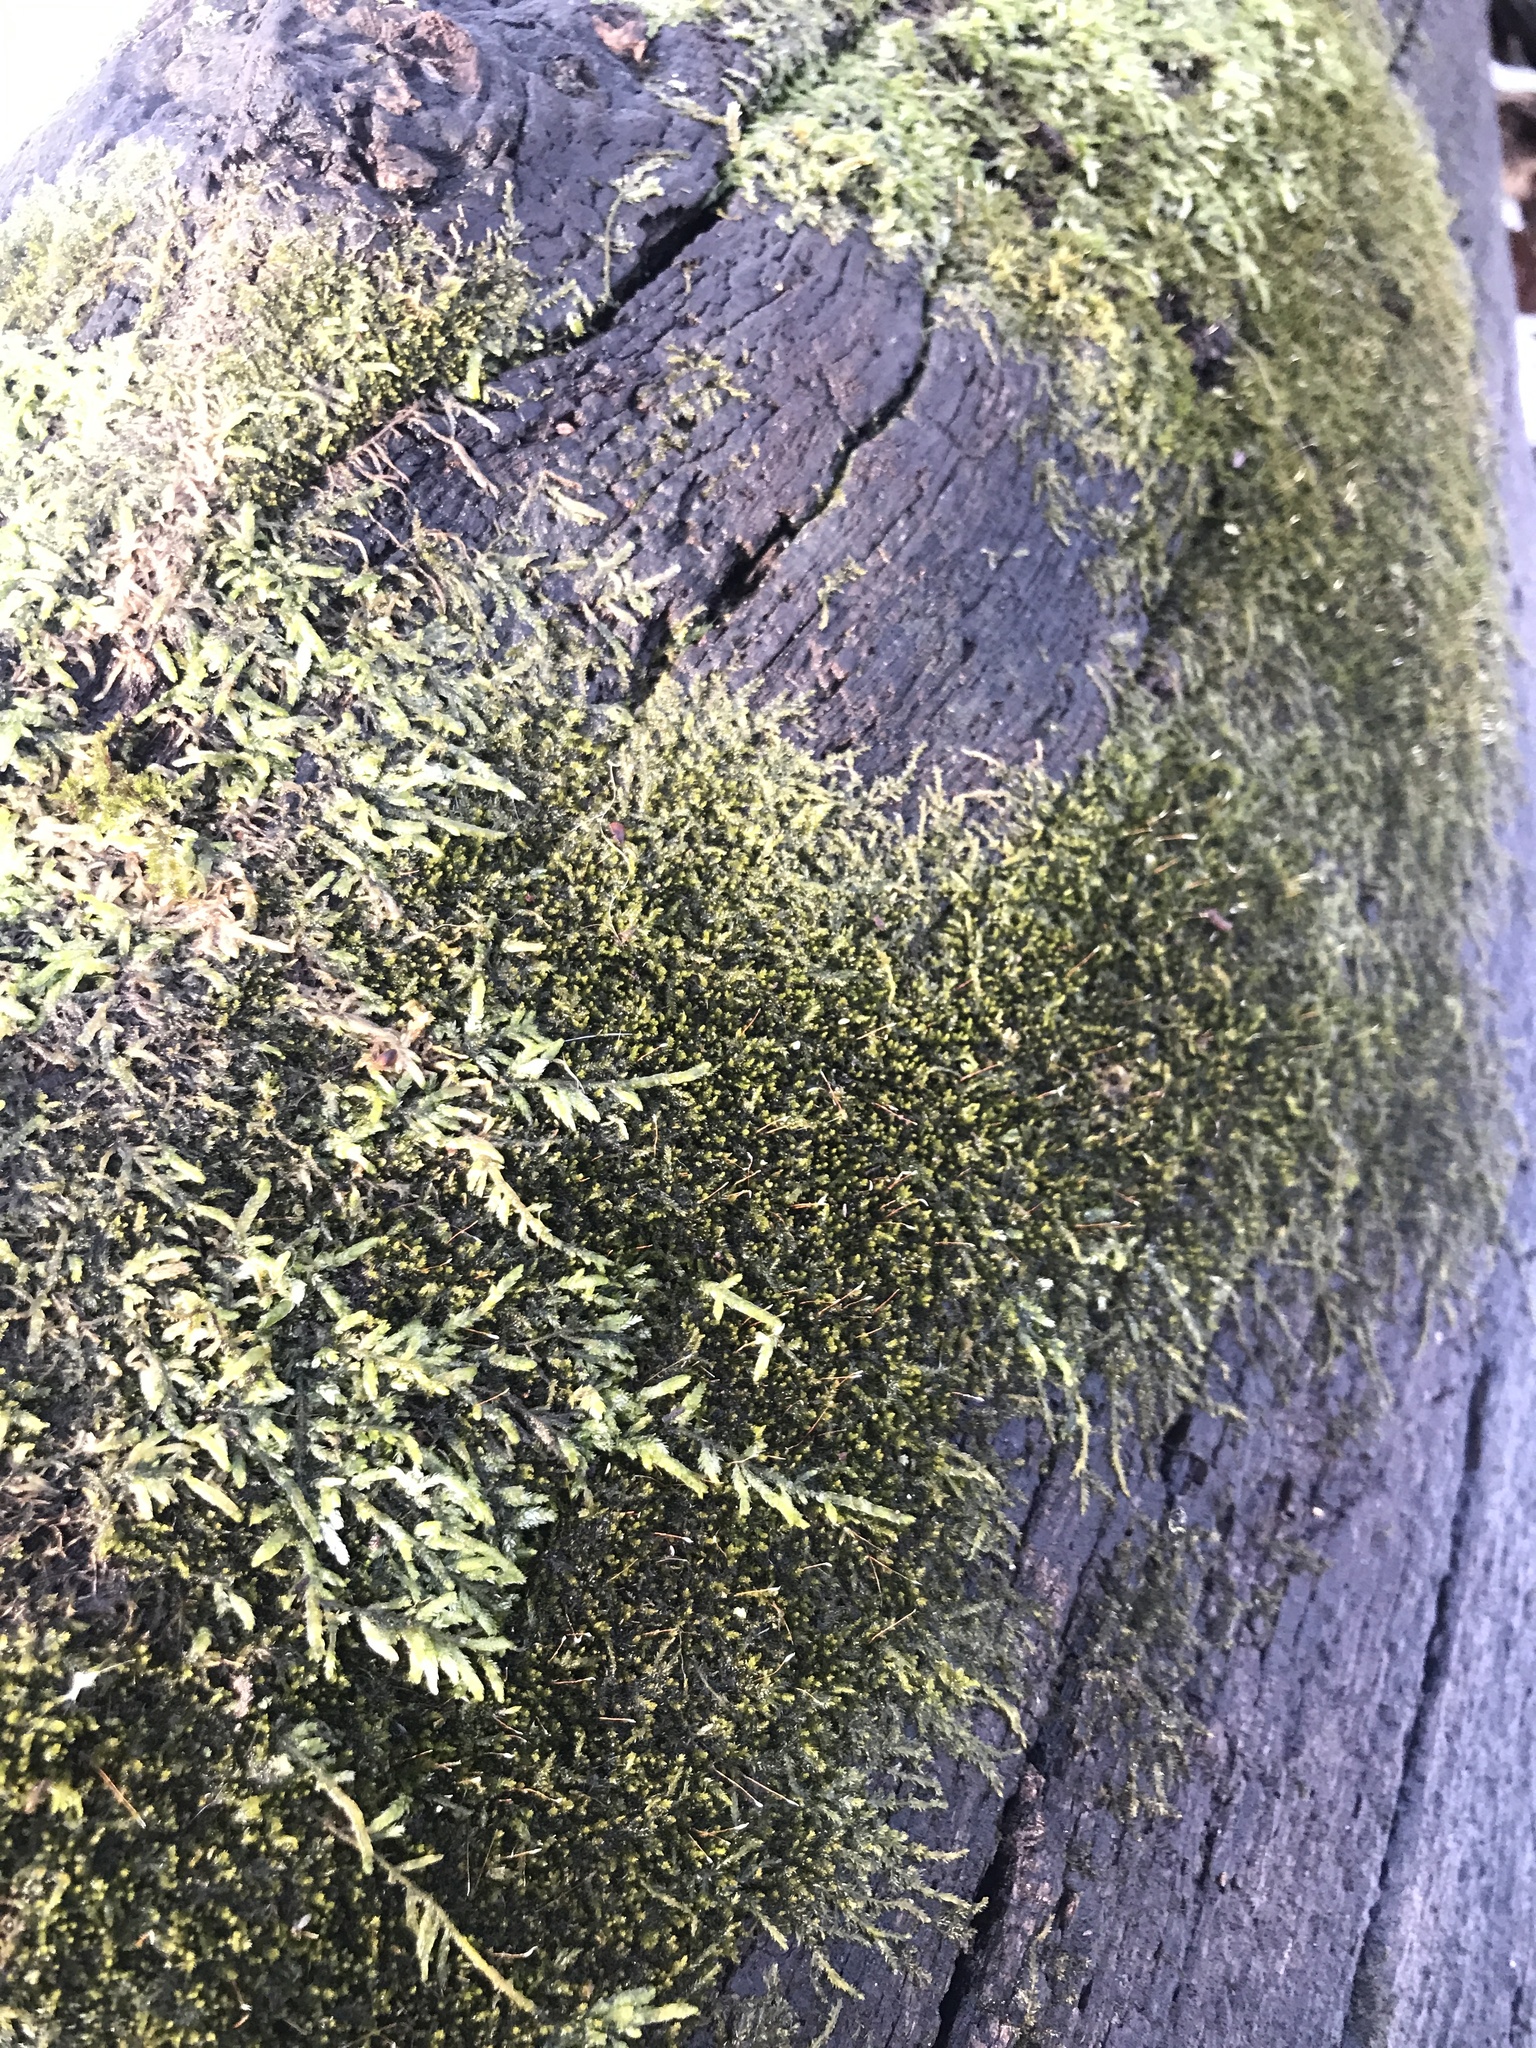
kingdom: Plantae
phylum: Bryophyta
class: Bryopsida
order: Hypnales
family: Entodontaceae
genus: Entodon
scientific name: Entodon seductrix
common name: Round-stemmed entodon moss
